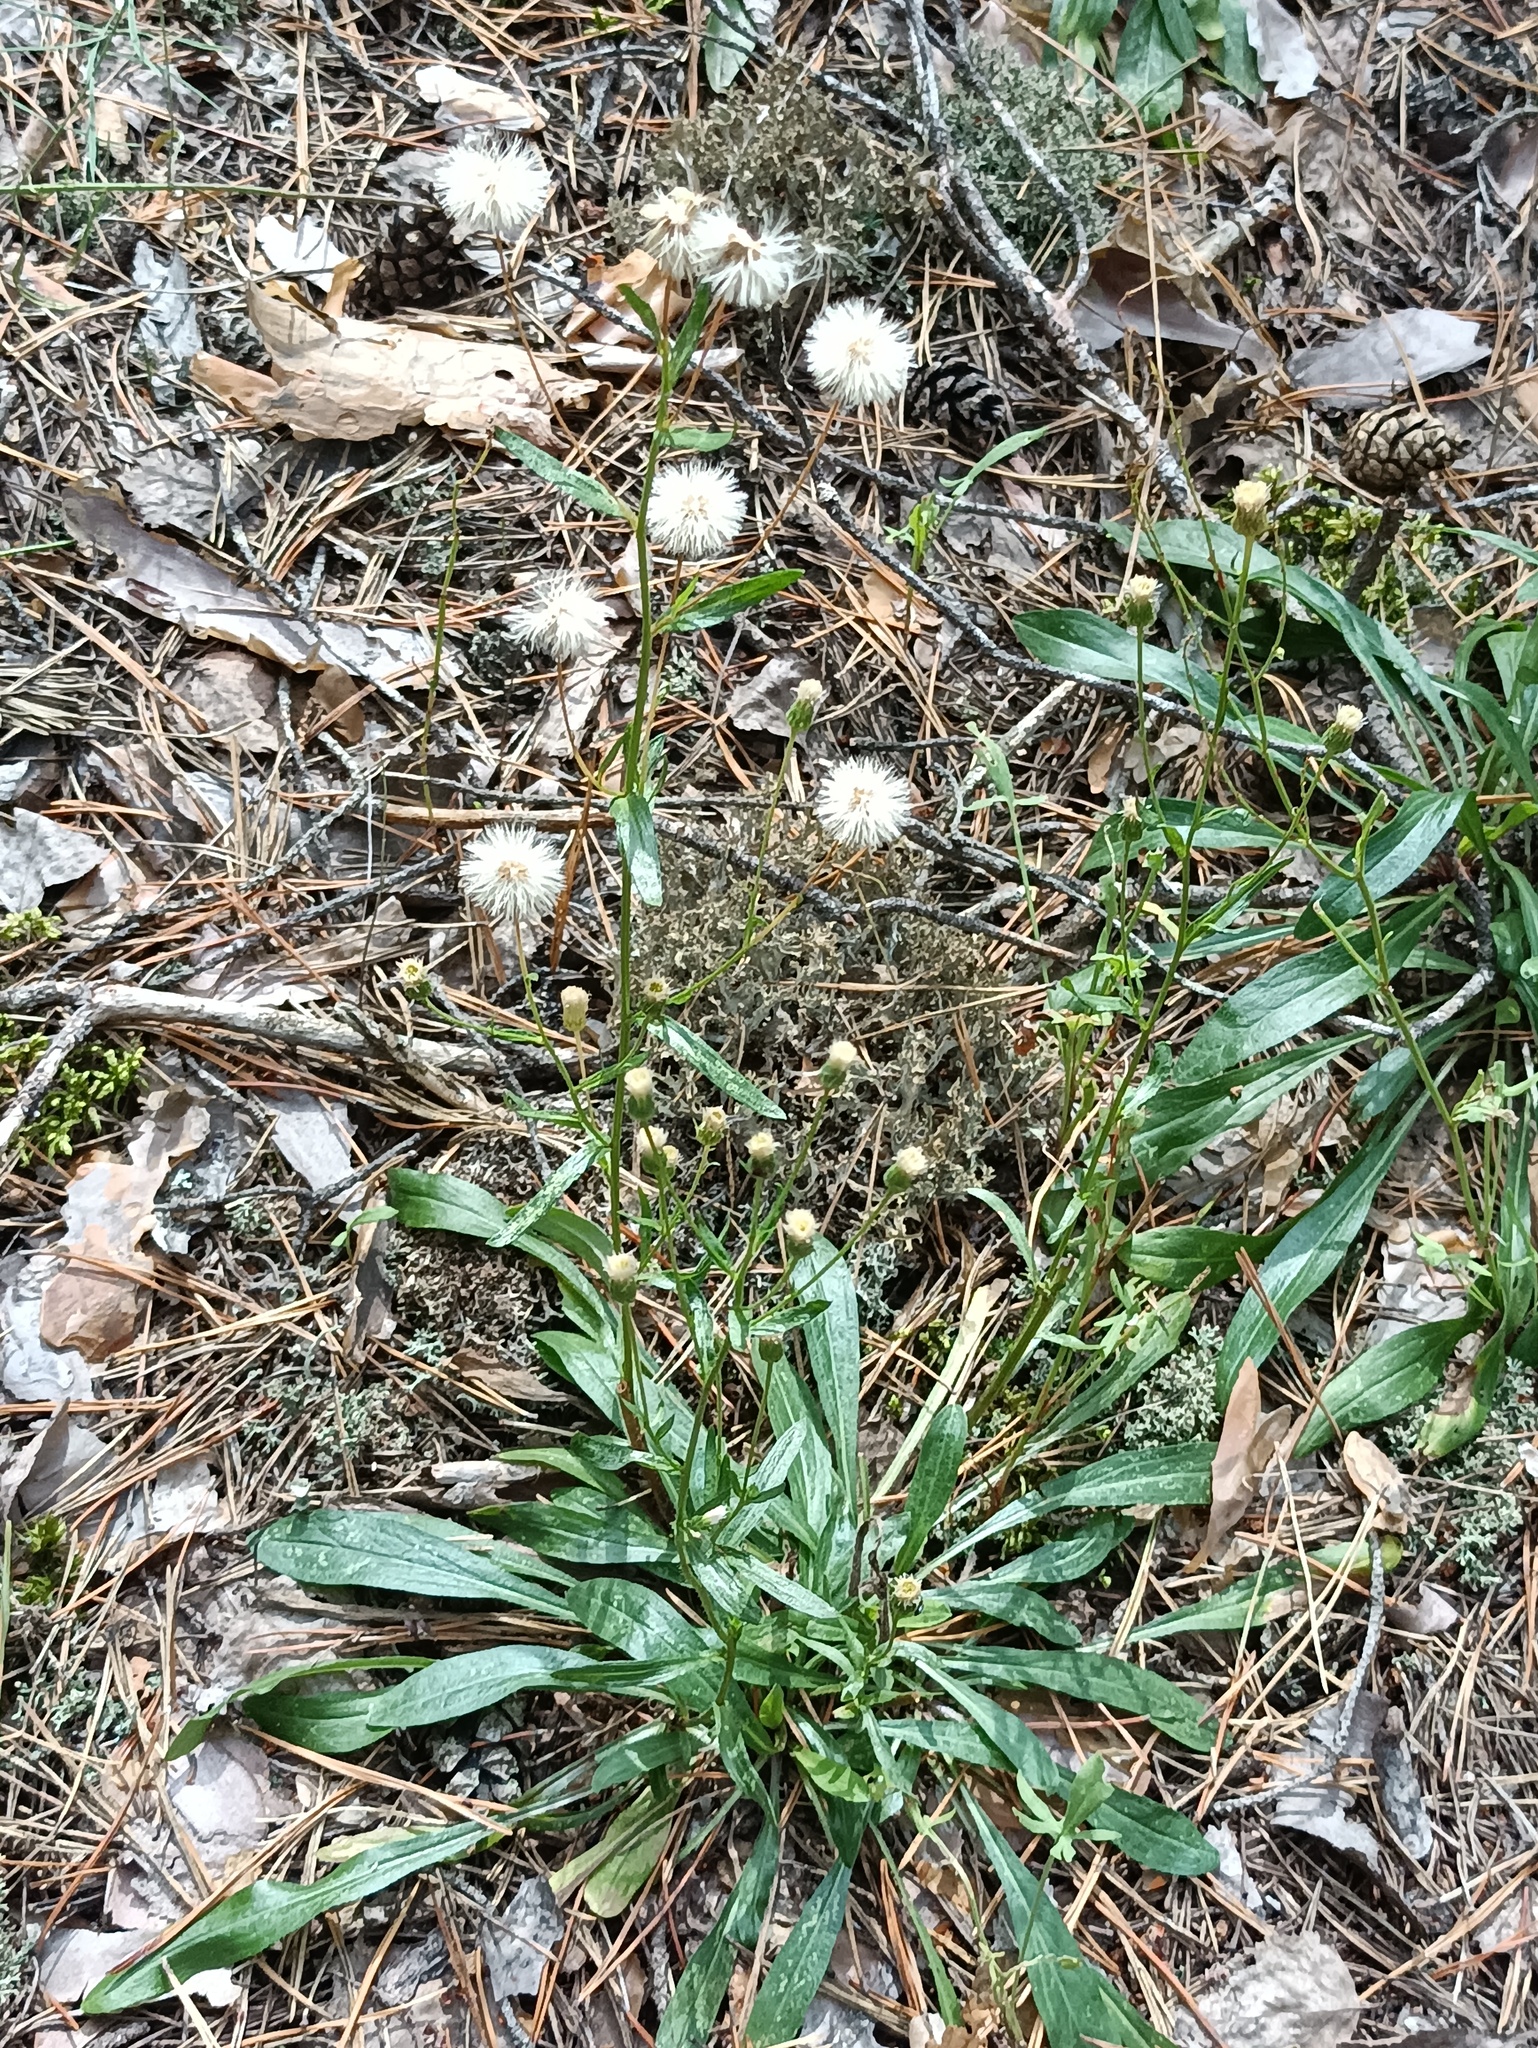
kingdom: Plantae
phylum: Tracheophyta
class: Magnoliopsida
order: Asterales
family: Asteraceae
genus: Erigeron
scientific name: Erigeron acris
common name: Blue fleabane
